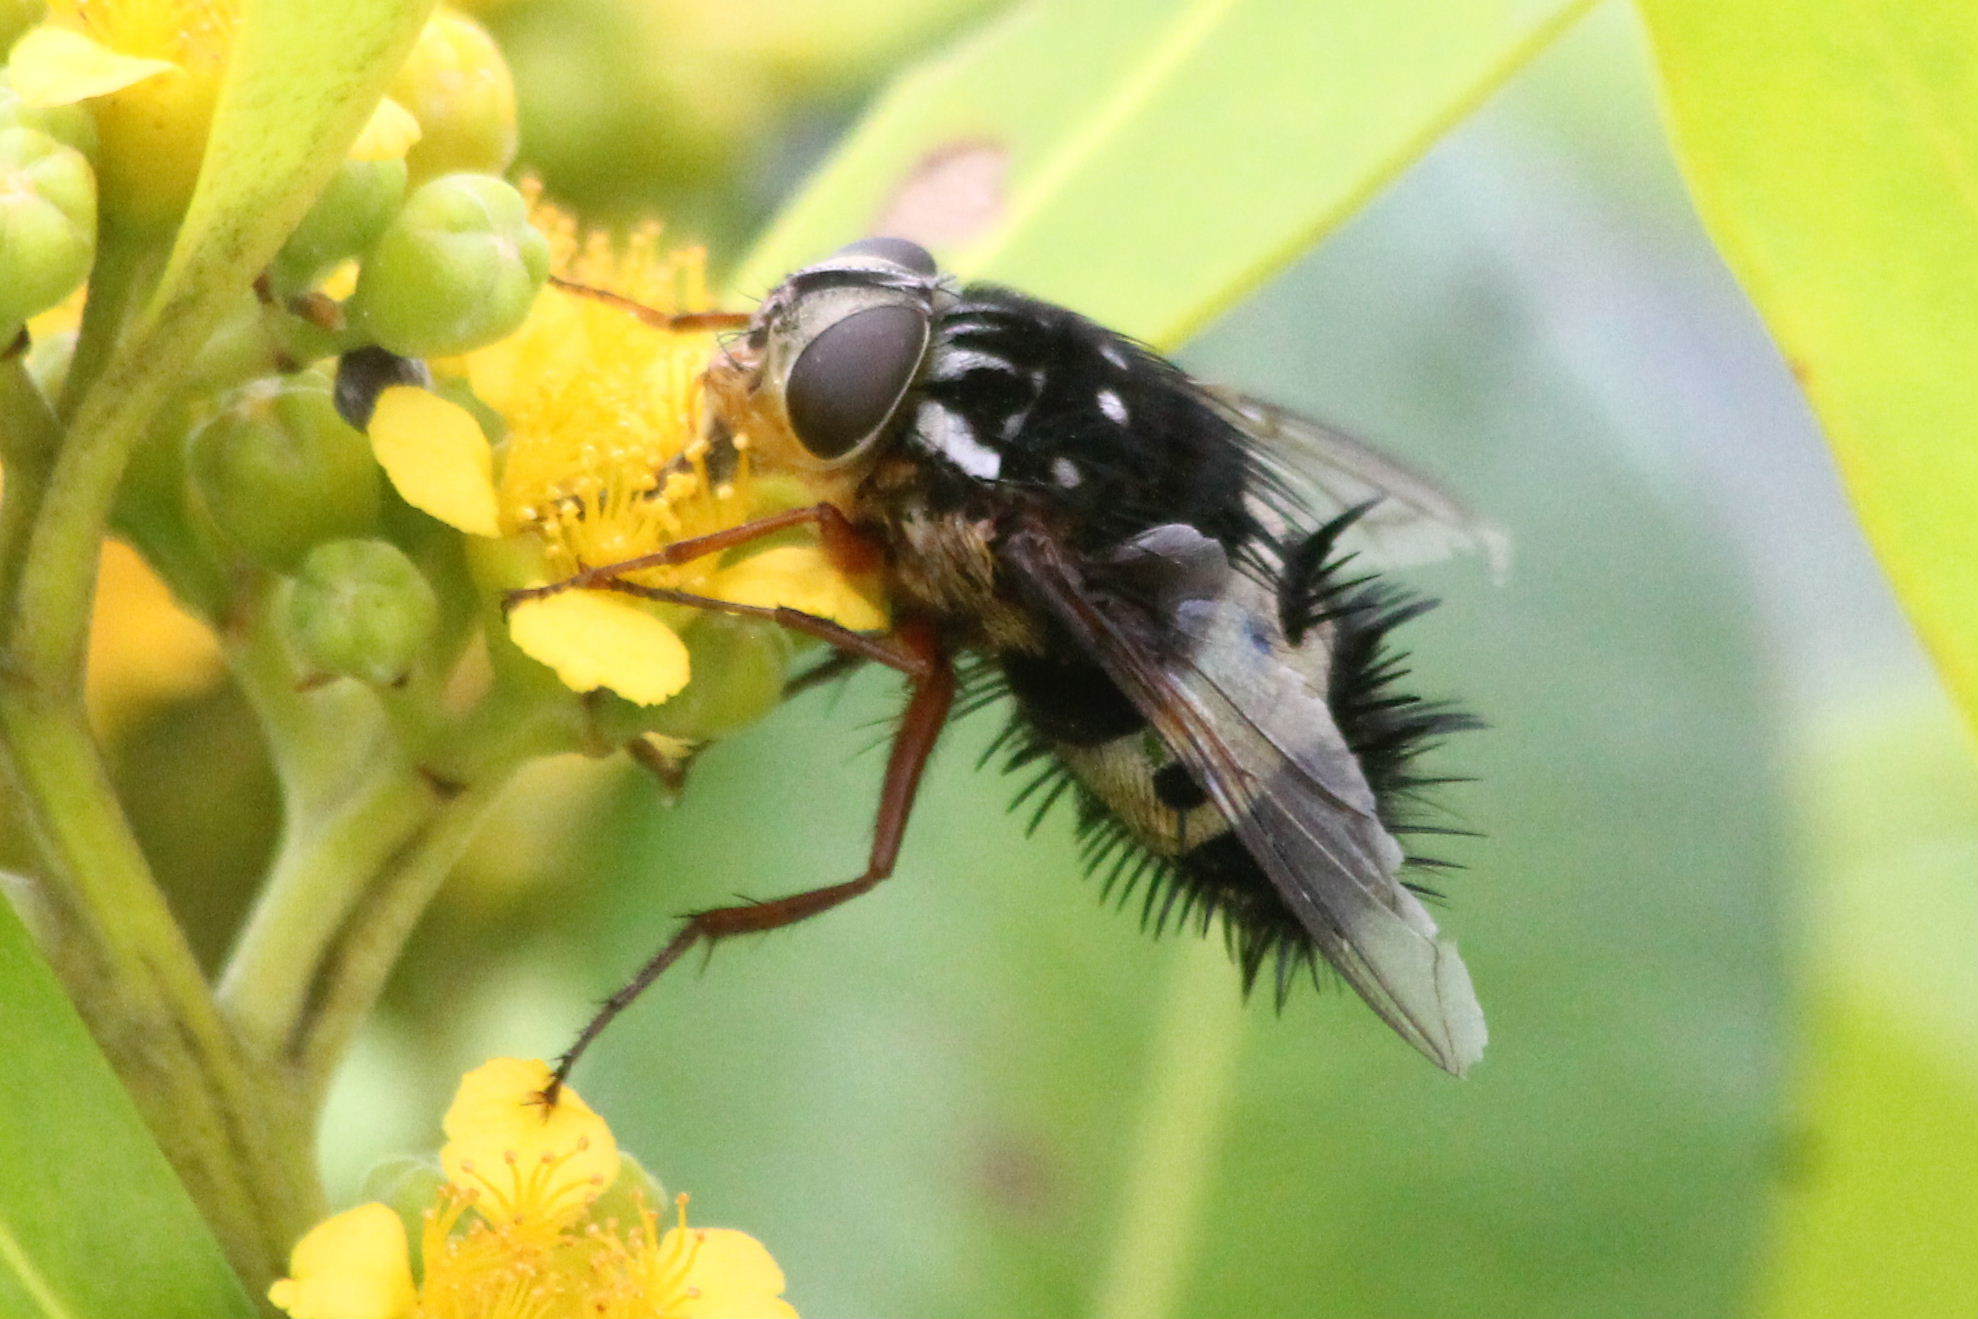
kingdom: Animalia
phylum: Arthropoda
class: Insecta
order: Diptera
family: Tachinidae
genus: Formosia
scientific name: Formosia speciosa
